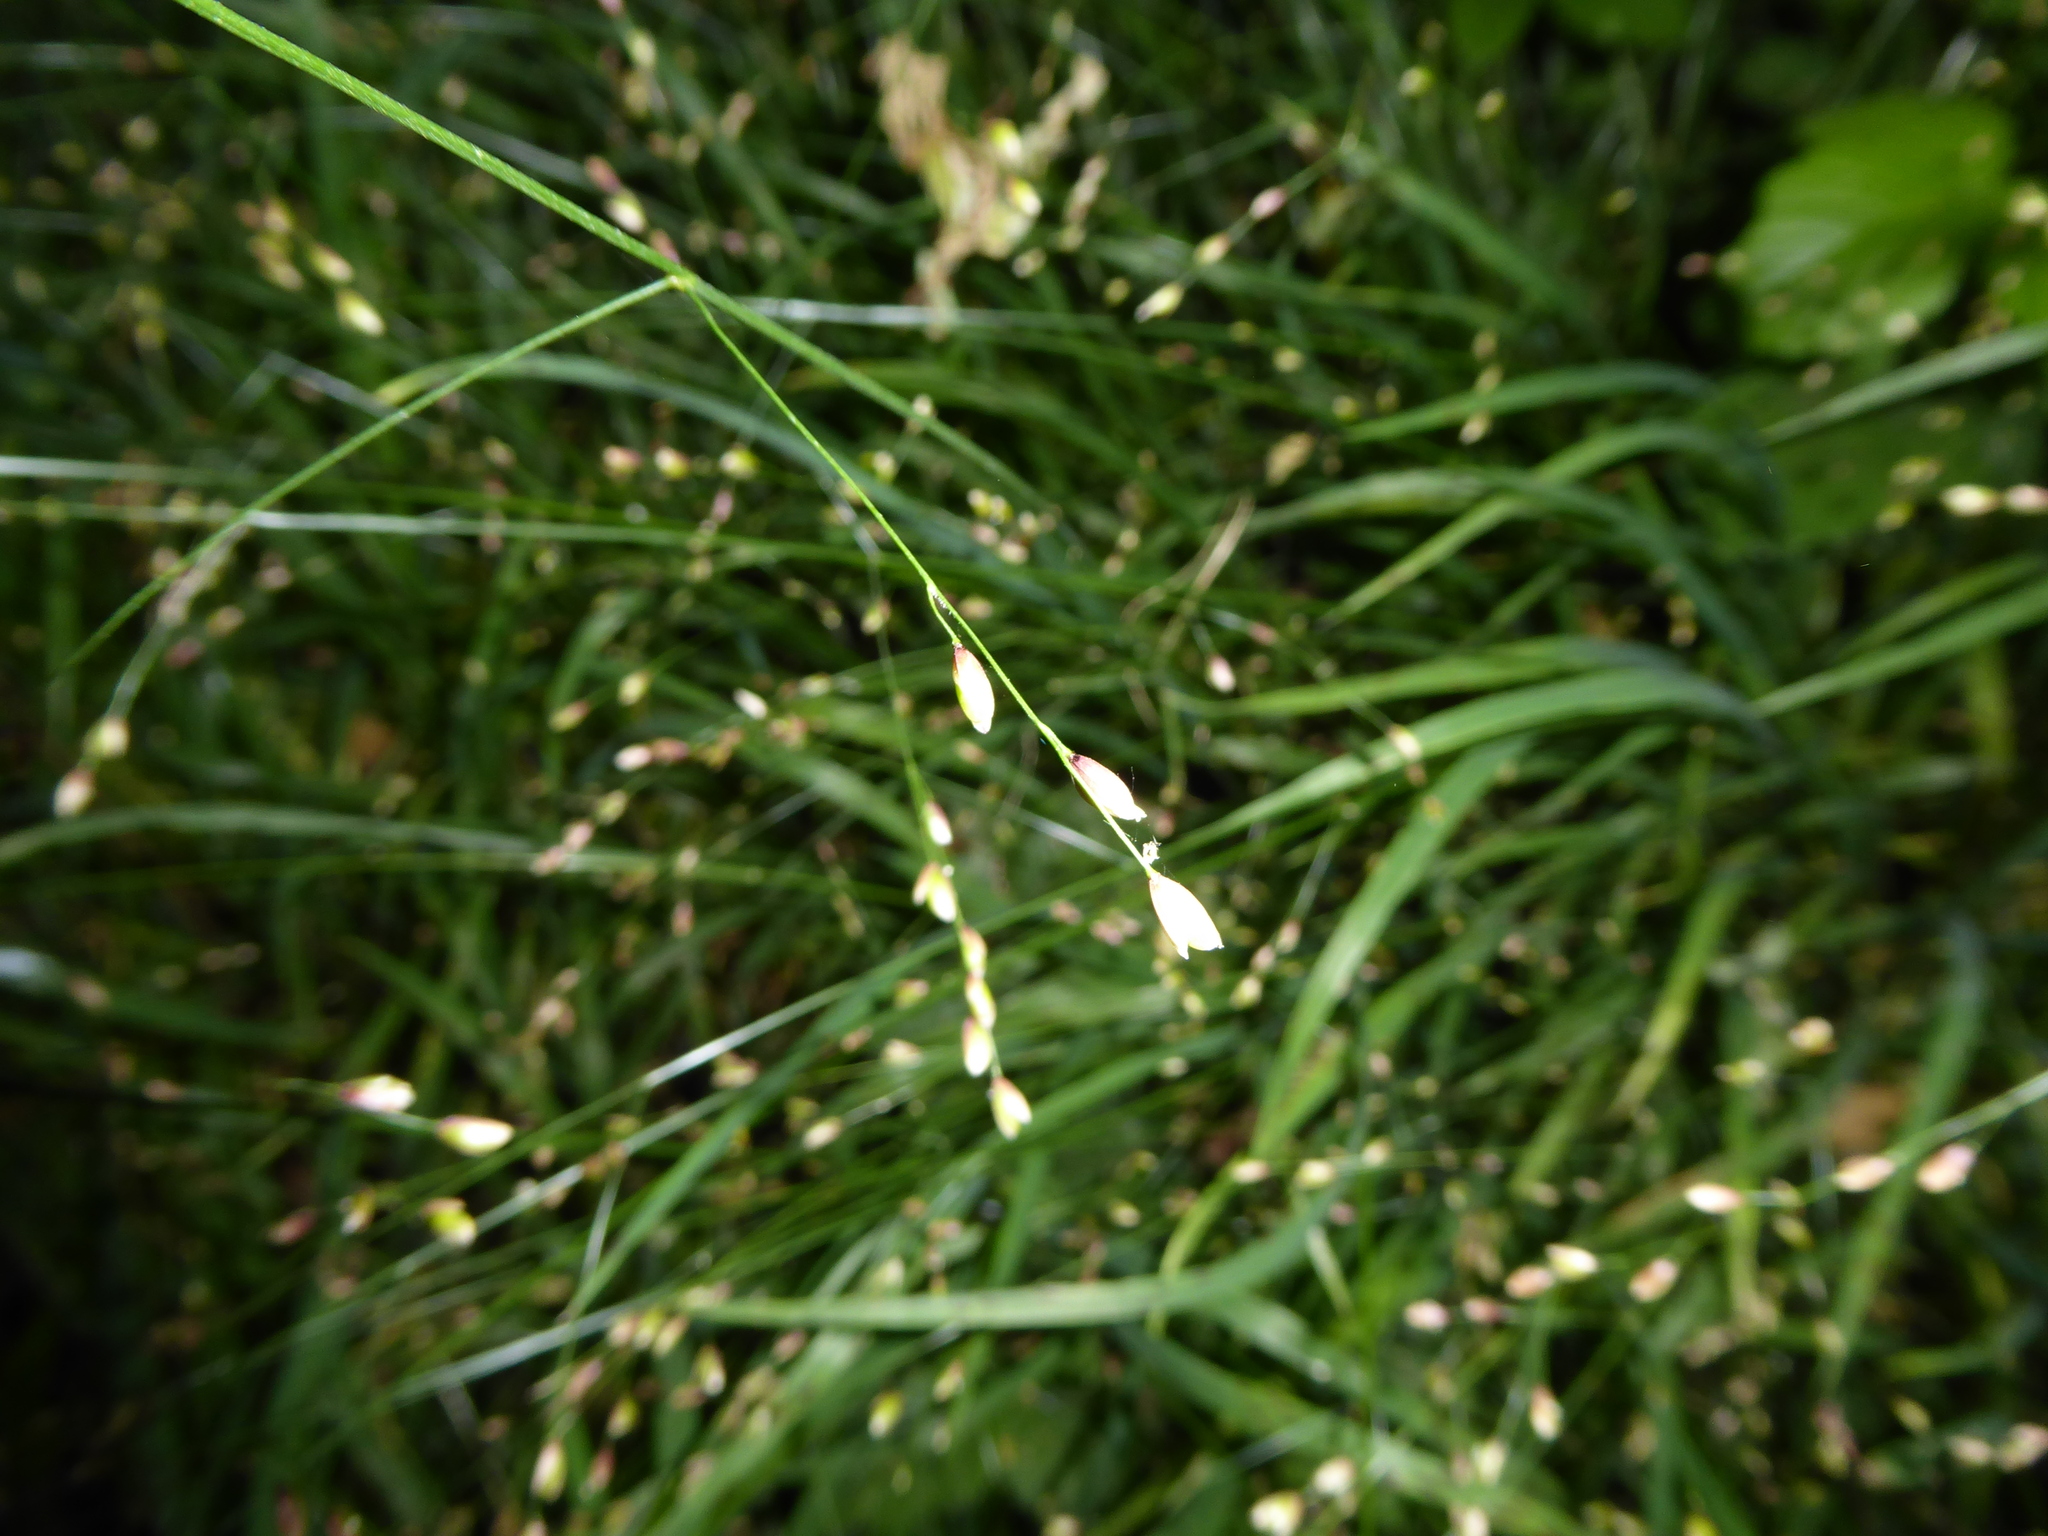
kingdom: Plantae
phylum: Tracheophyta
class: Liliopsida
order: Poales
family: Poaceae
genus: Melica
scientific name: Melica uniflora
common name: Wood melick
